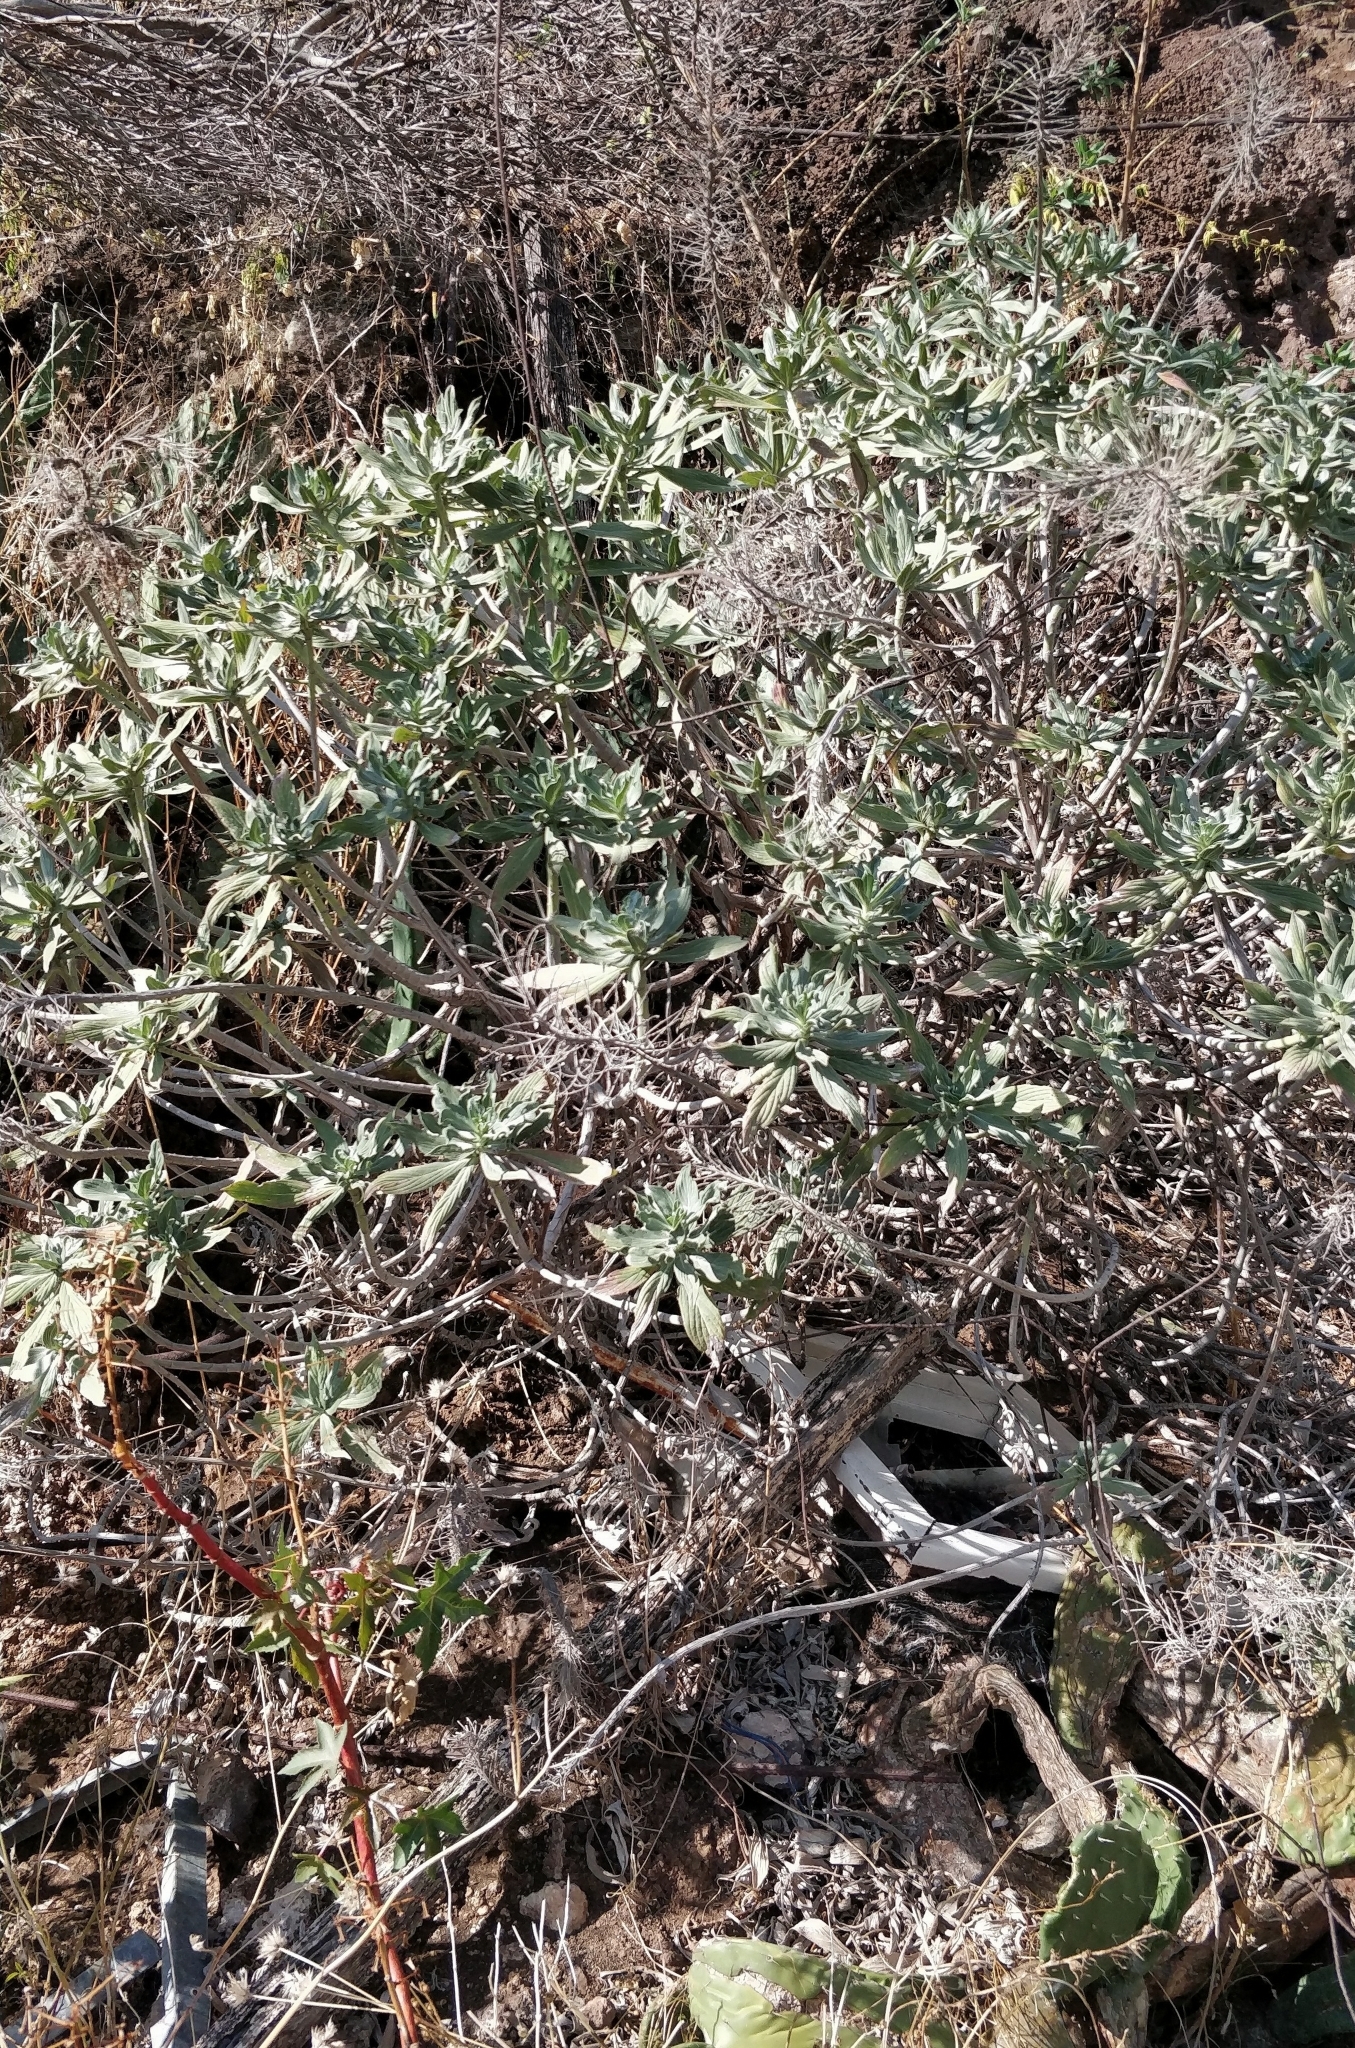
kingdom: Plantae
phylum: Tracheophyta
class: Magnoliopsida
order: Boraginales
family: Boraginaceae
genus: Echium
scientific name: Echium nervosum
